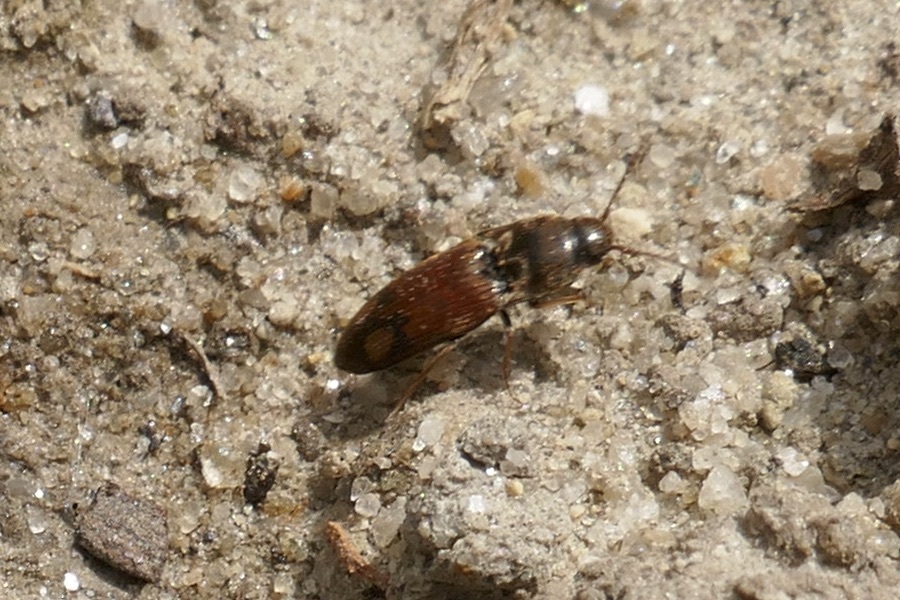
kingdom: Animalia
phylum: Arthropoda
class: Insecta
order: Coleoptera
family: Elateridae
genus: Drasterius
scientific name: Drasterius bimaculatus
